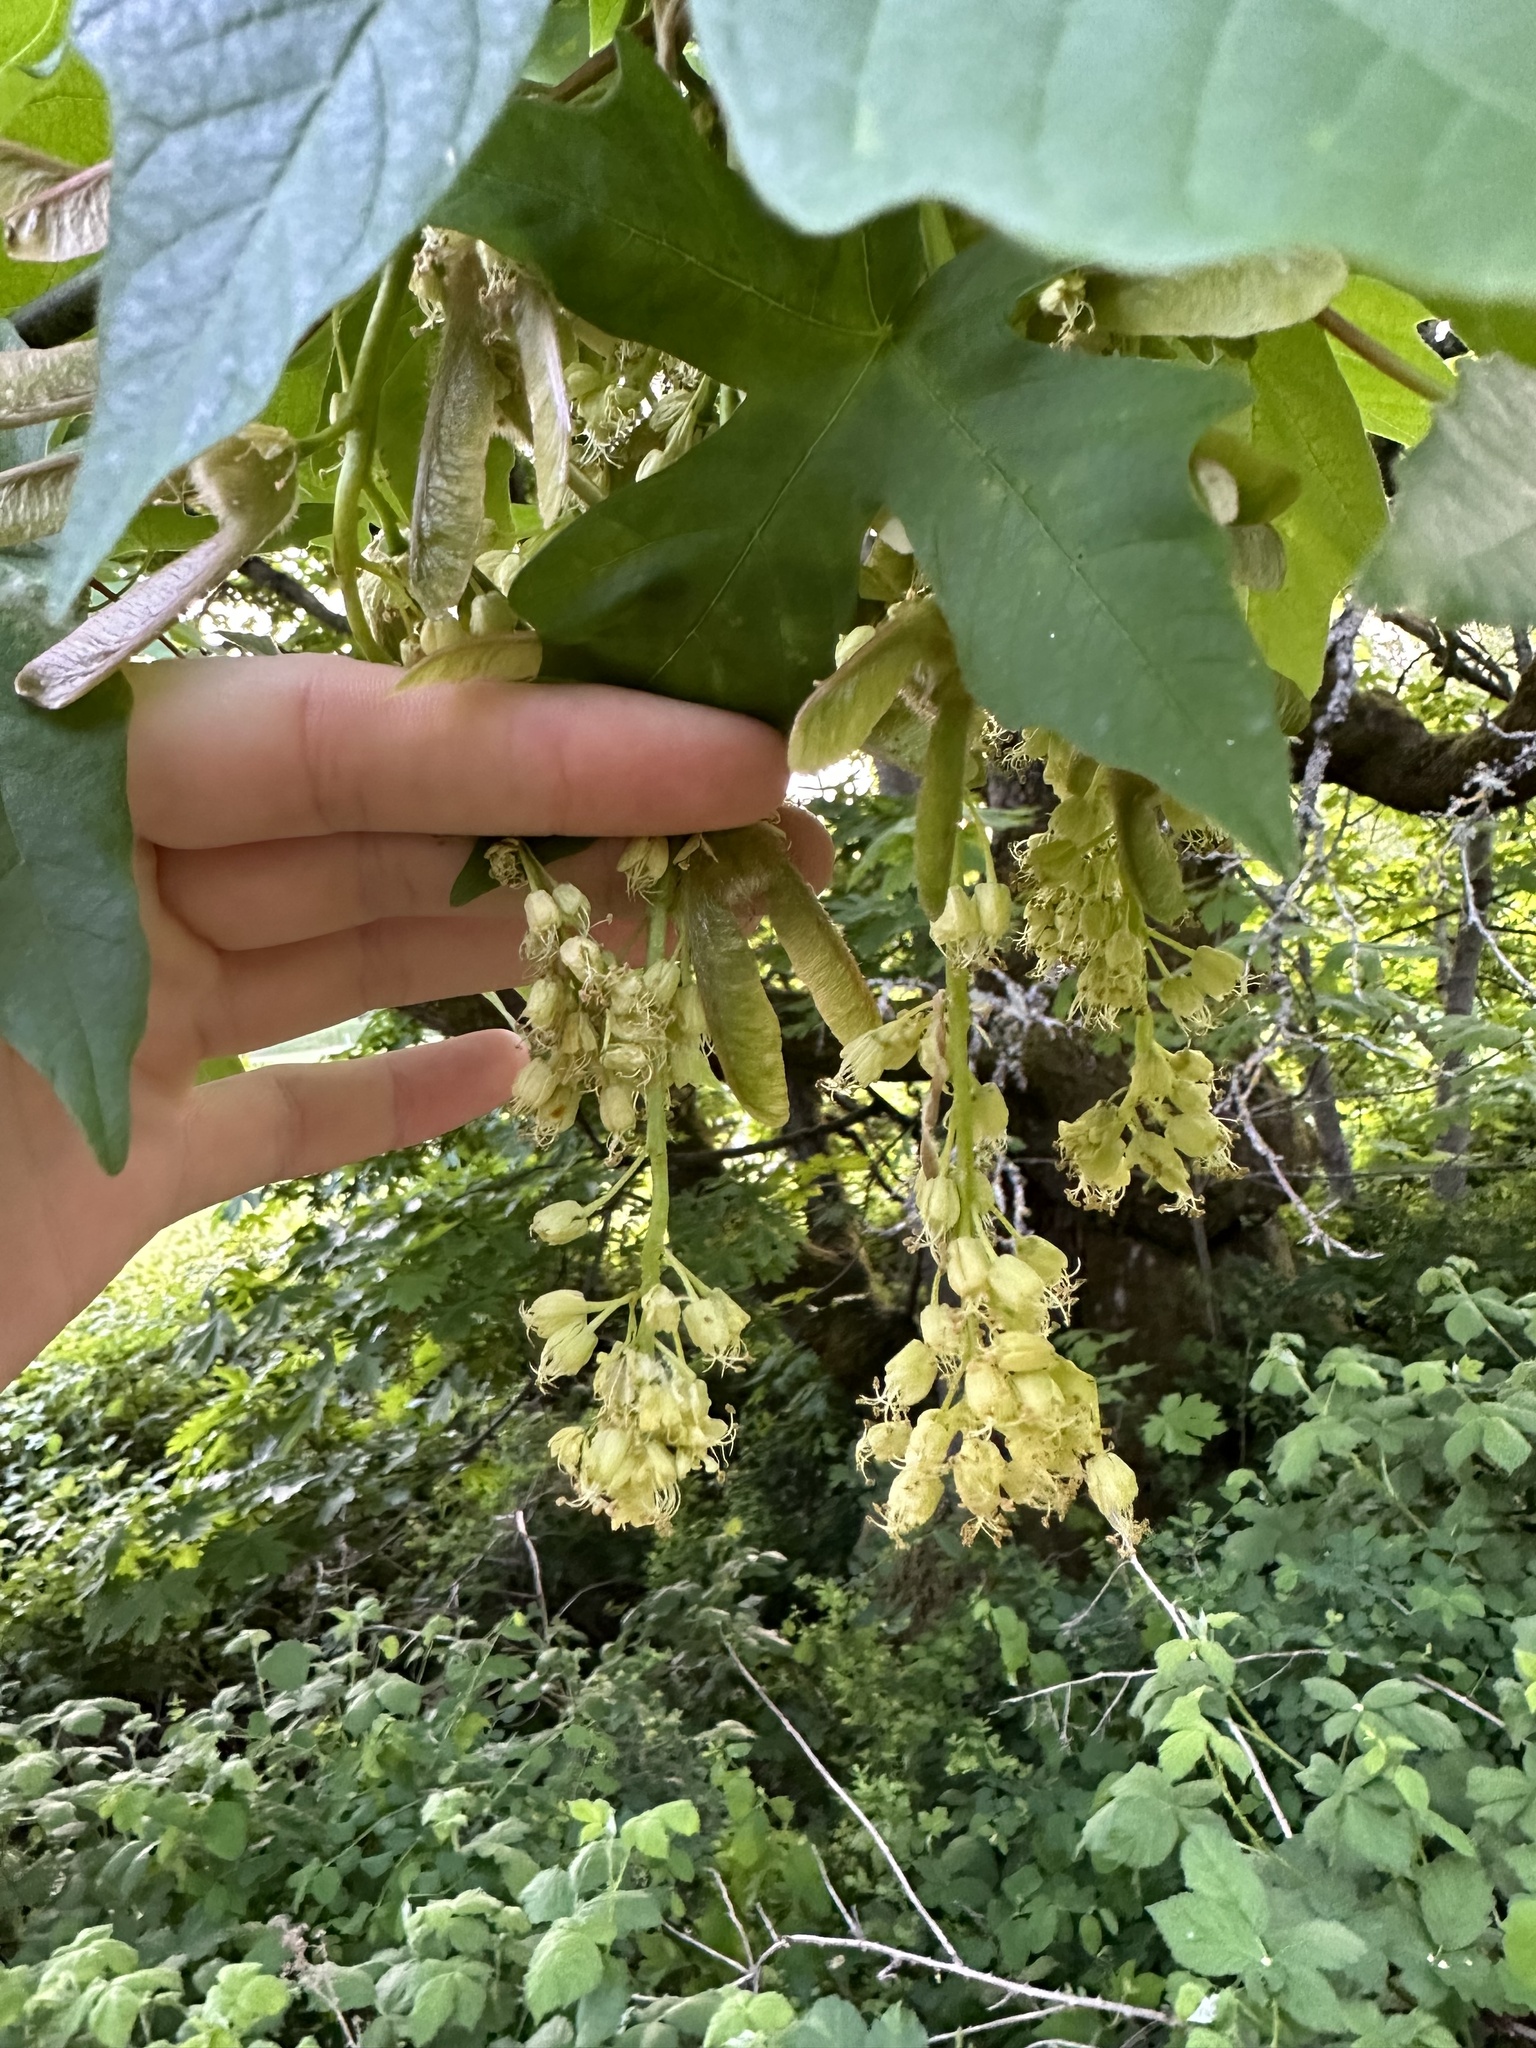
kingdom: Plantae
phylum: Tracheophyta
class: Magnoliopsida
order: Sapindales
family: Sapindaceae
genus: Acer
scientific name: Acer macrophyllum
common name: Oregon maple
